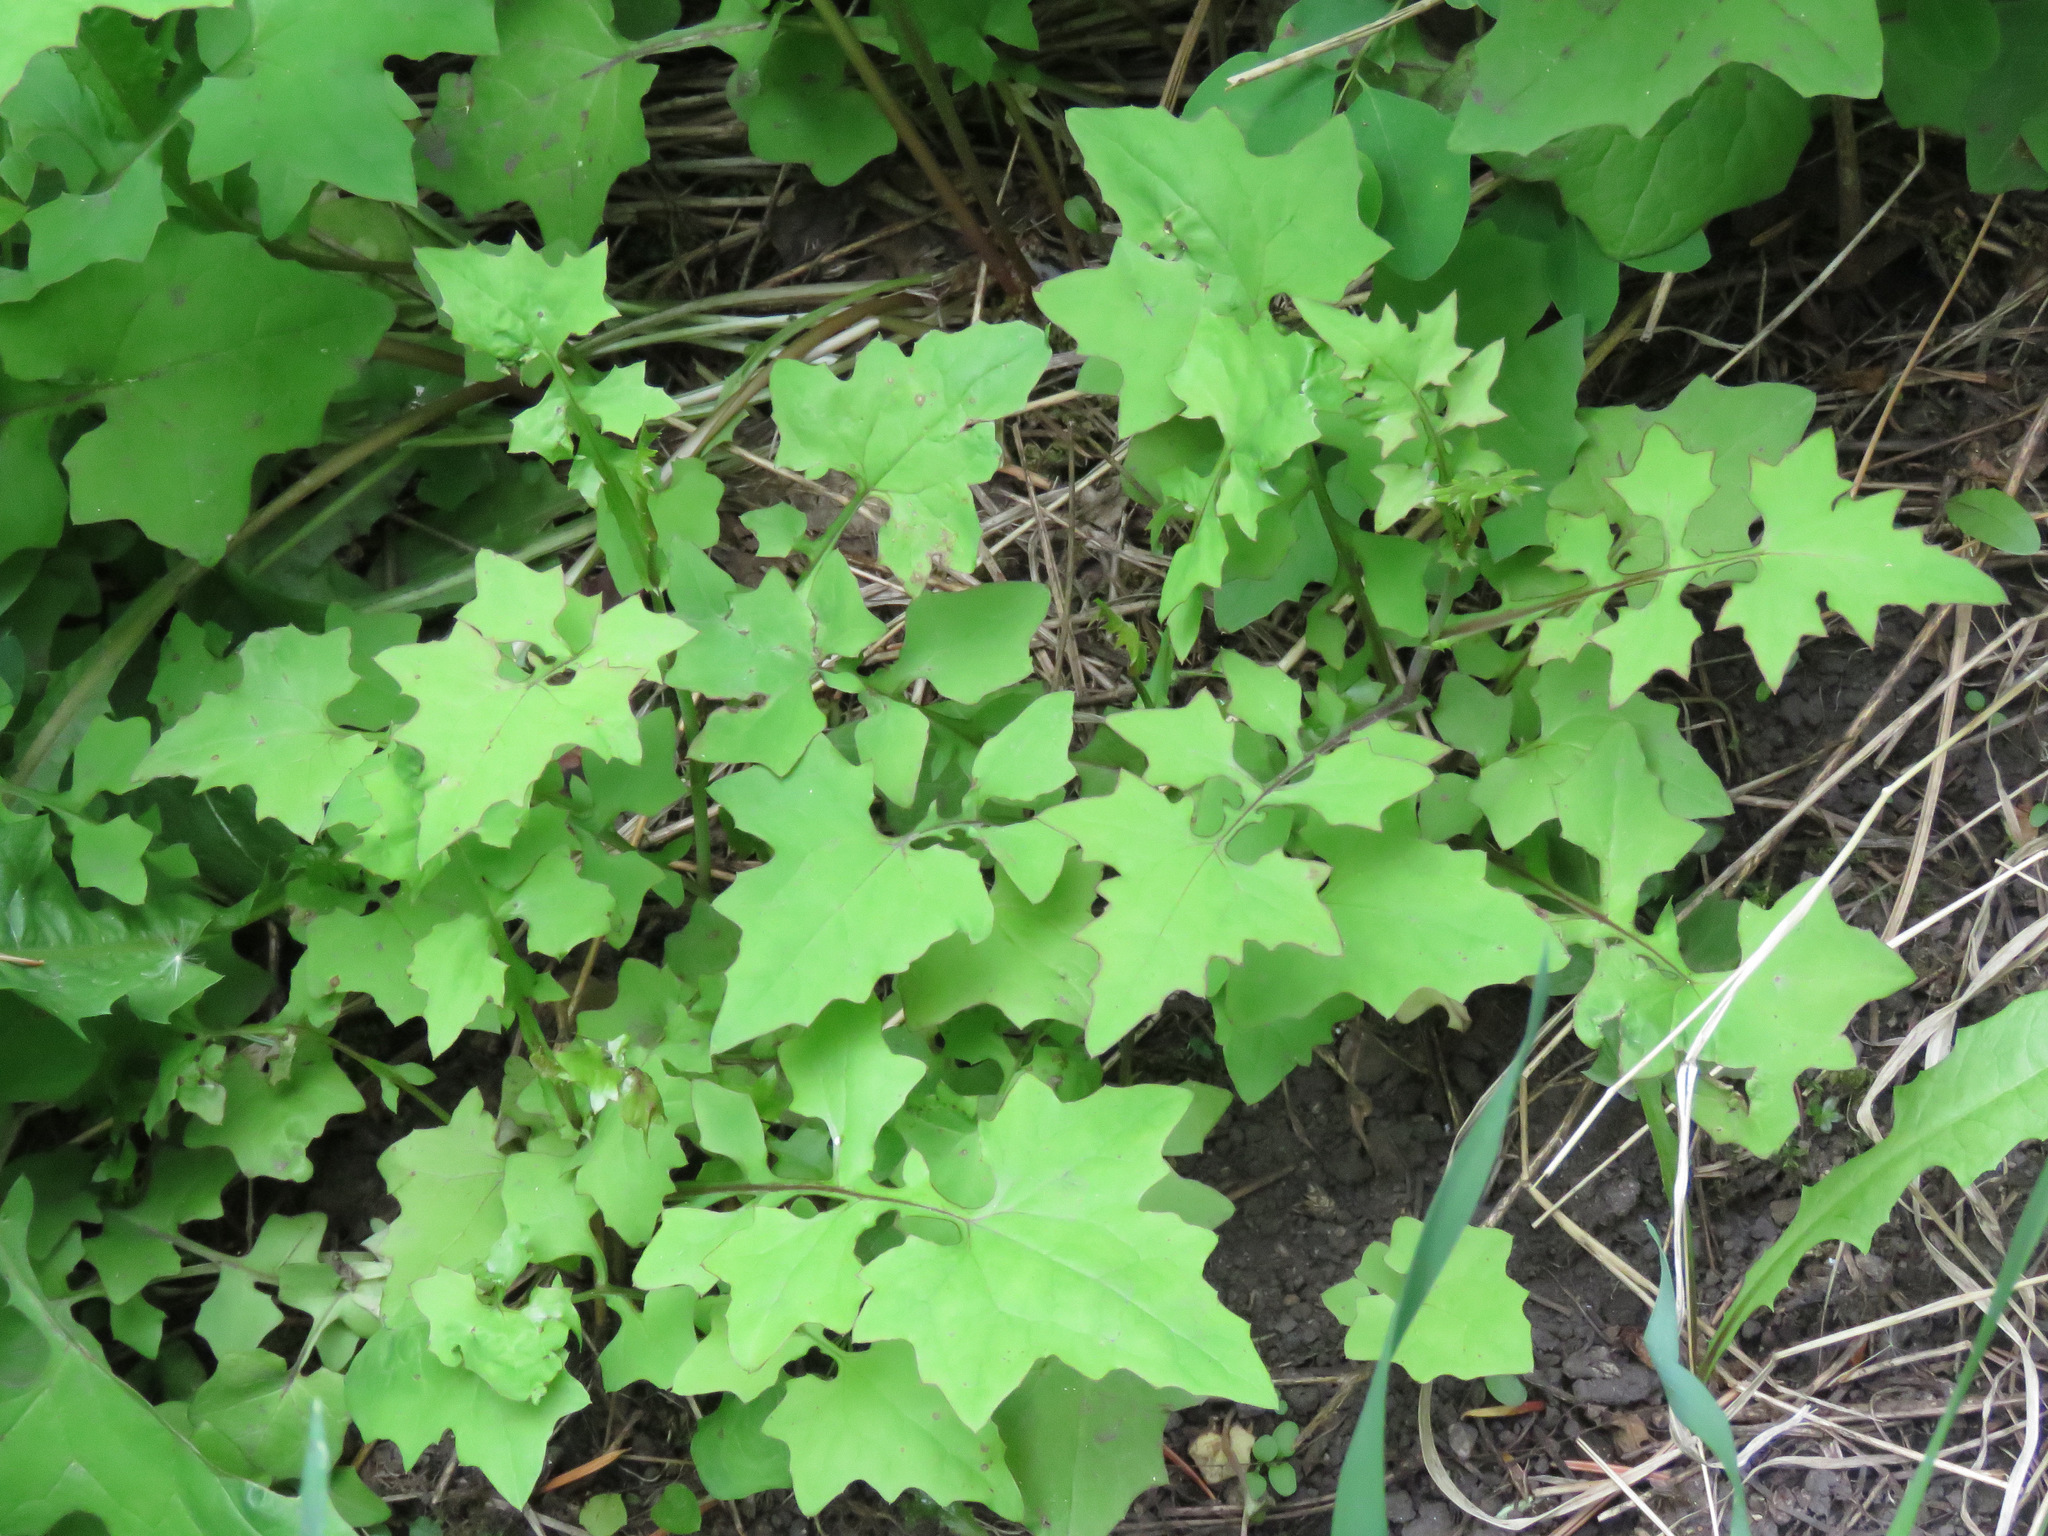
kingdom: Plantae
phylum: Tracheophyta
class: Magnoliopsida
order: Asterales
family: Asteraceae
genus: Mycelis
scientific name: Mycelis muralis
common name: Wall lettuce
